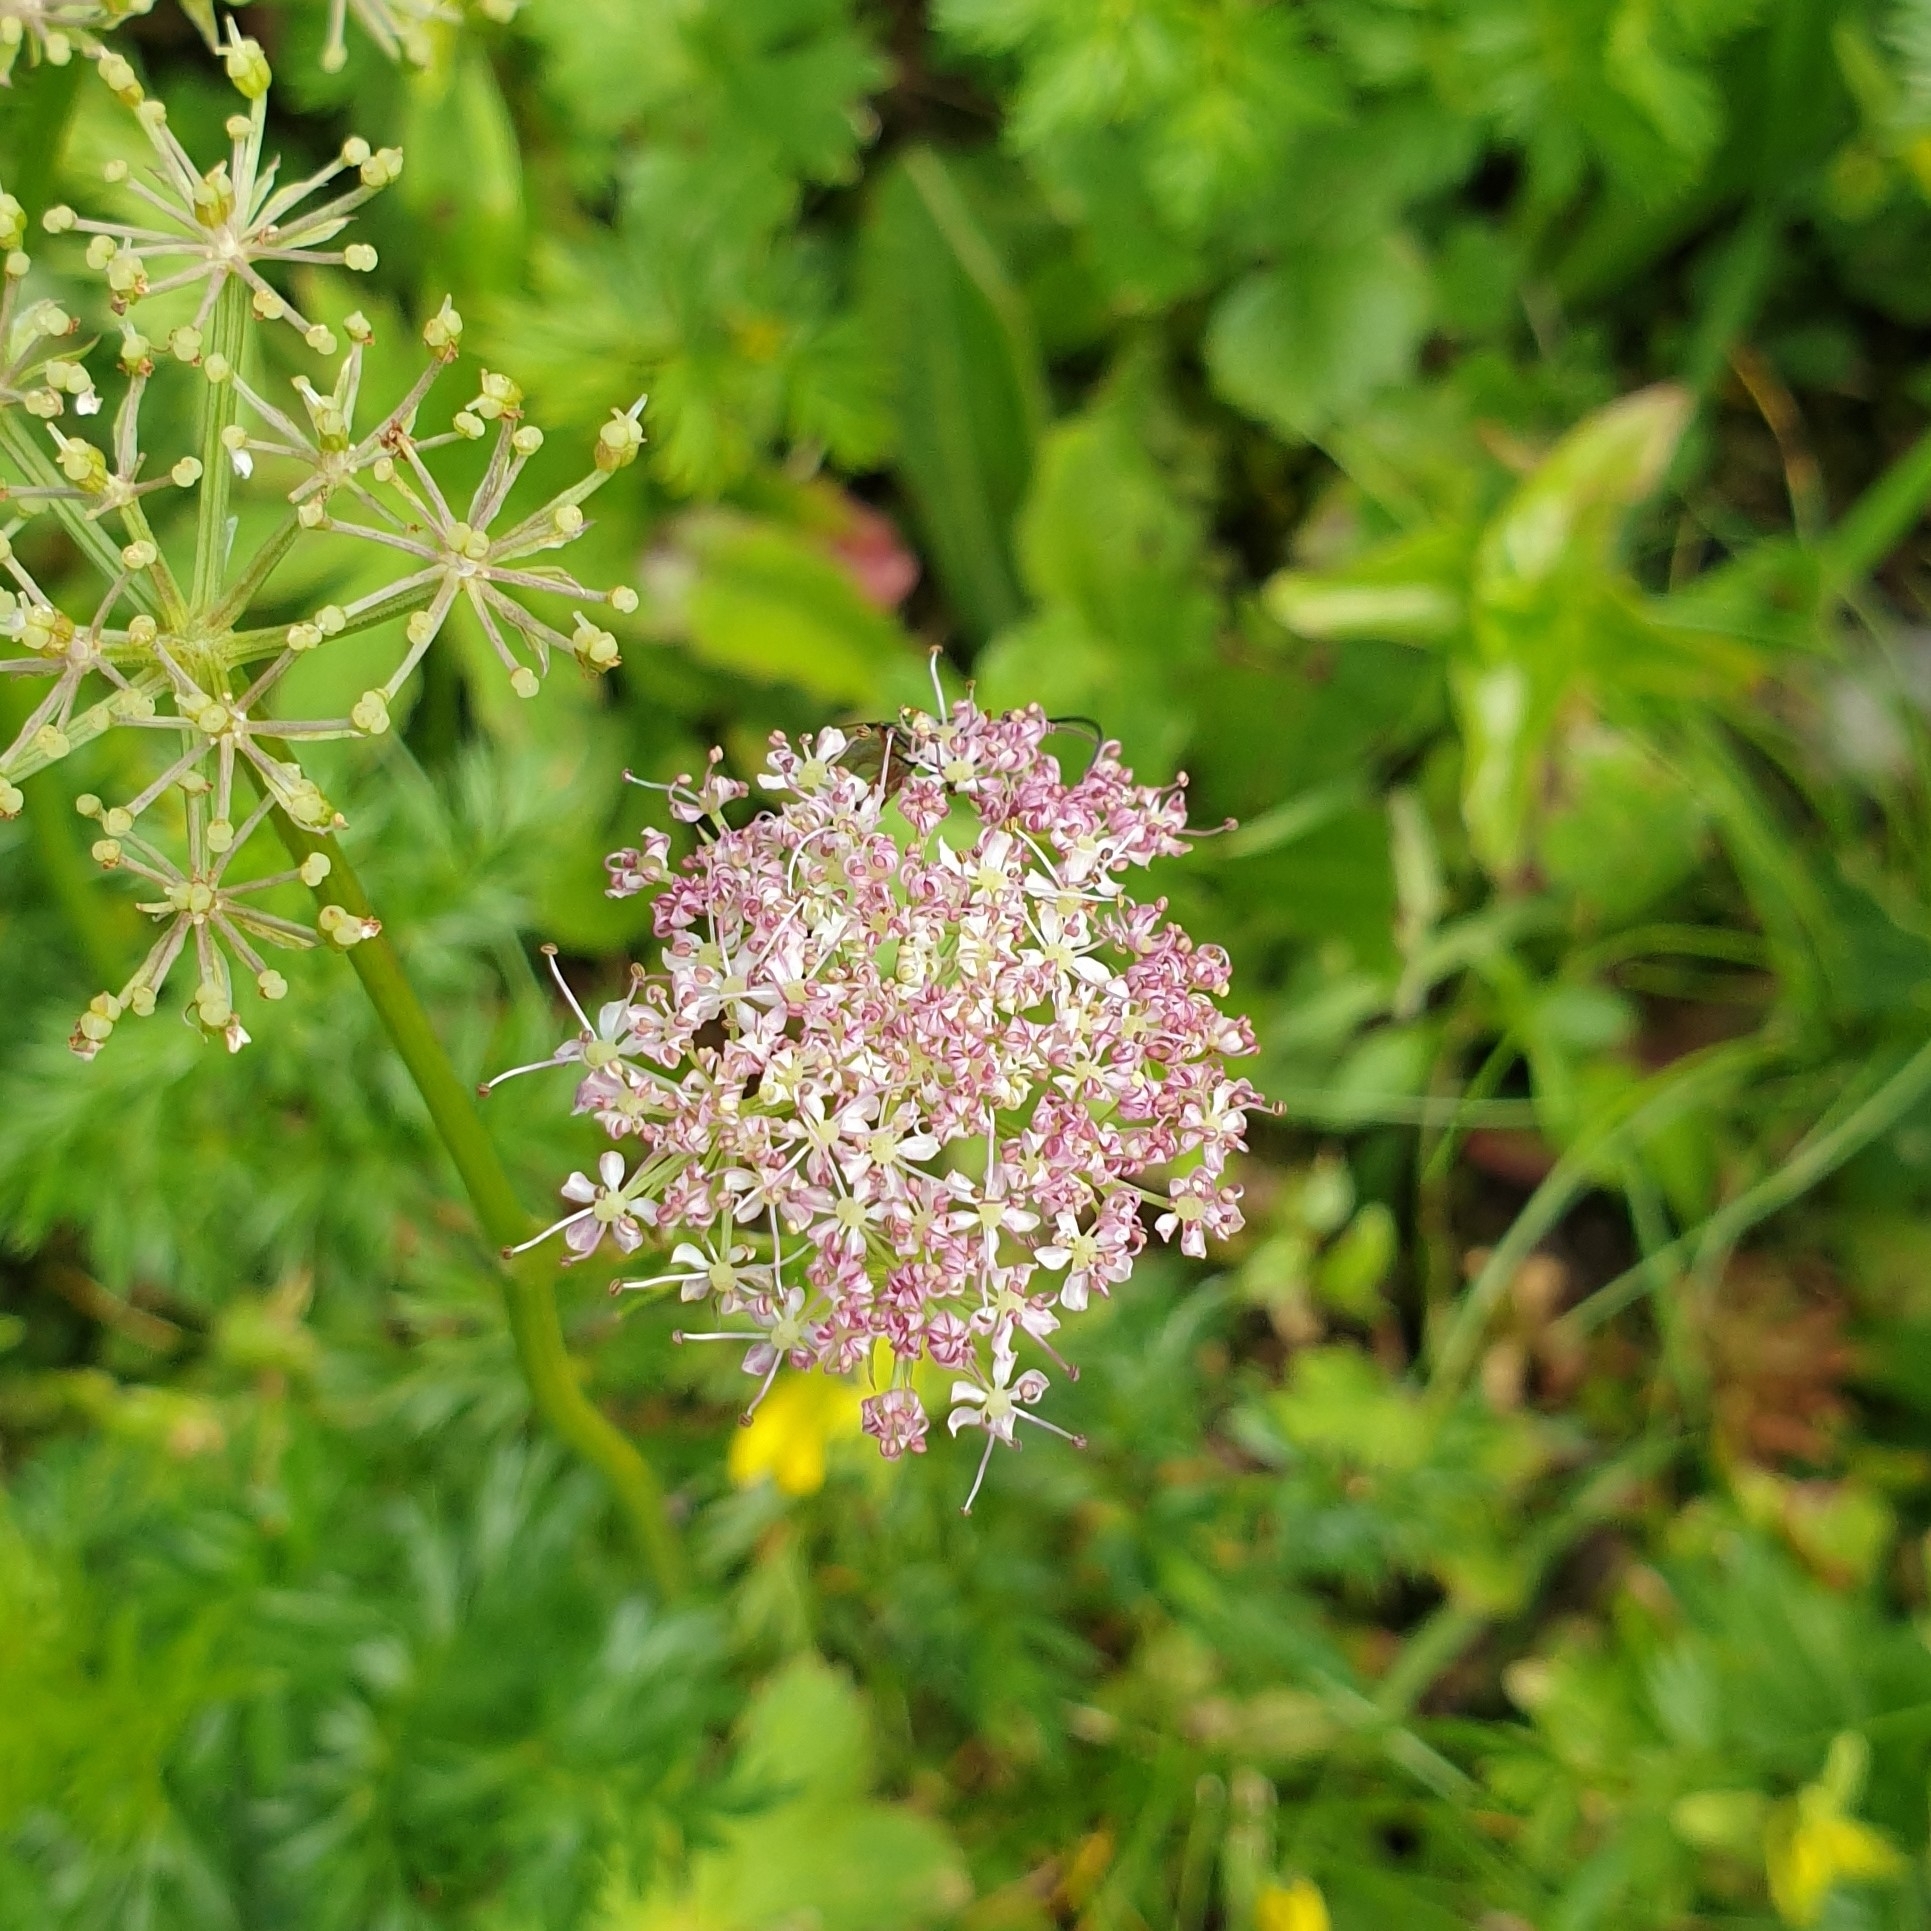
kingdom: Plantae
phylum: Tracheophyta
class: Magnoliopsida
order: Apiales
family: Apiaceae
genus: Mutellina
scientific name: Mutellina adonidifolia
